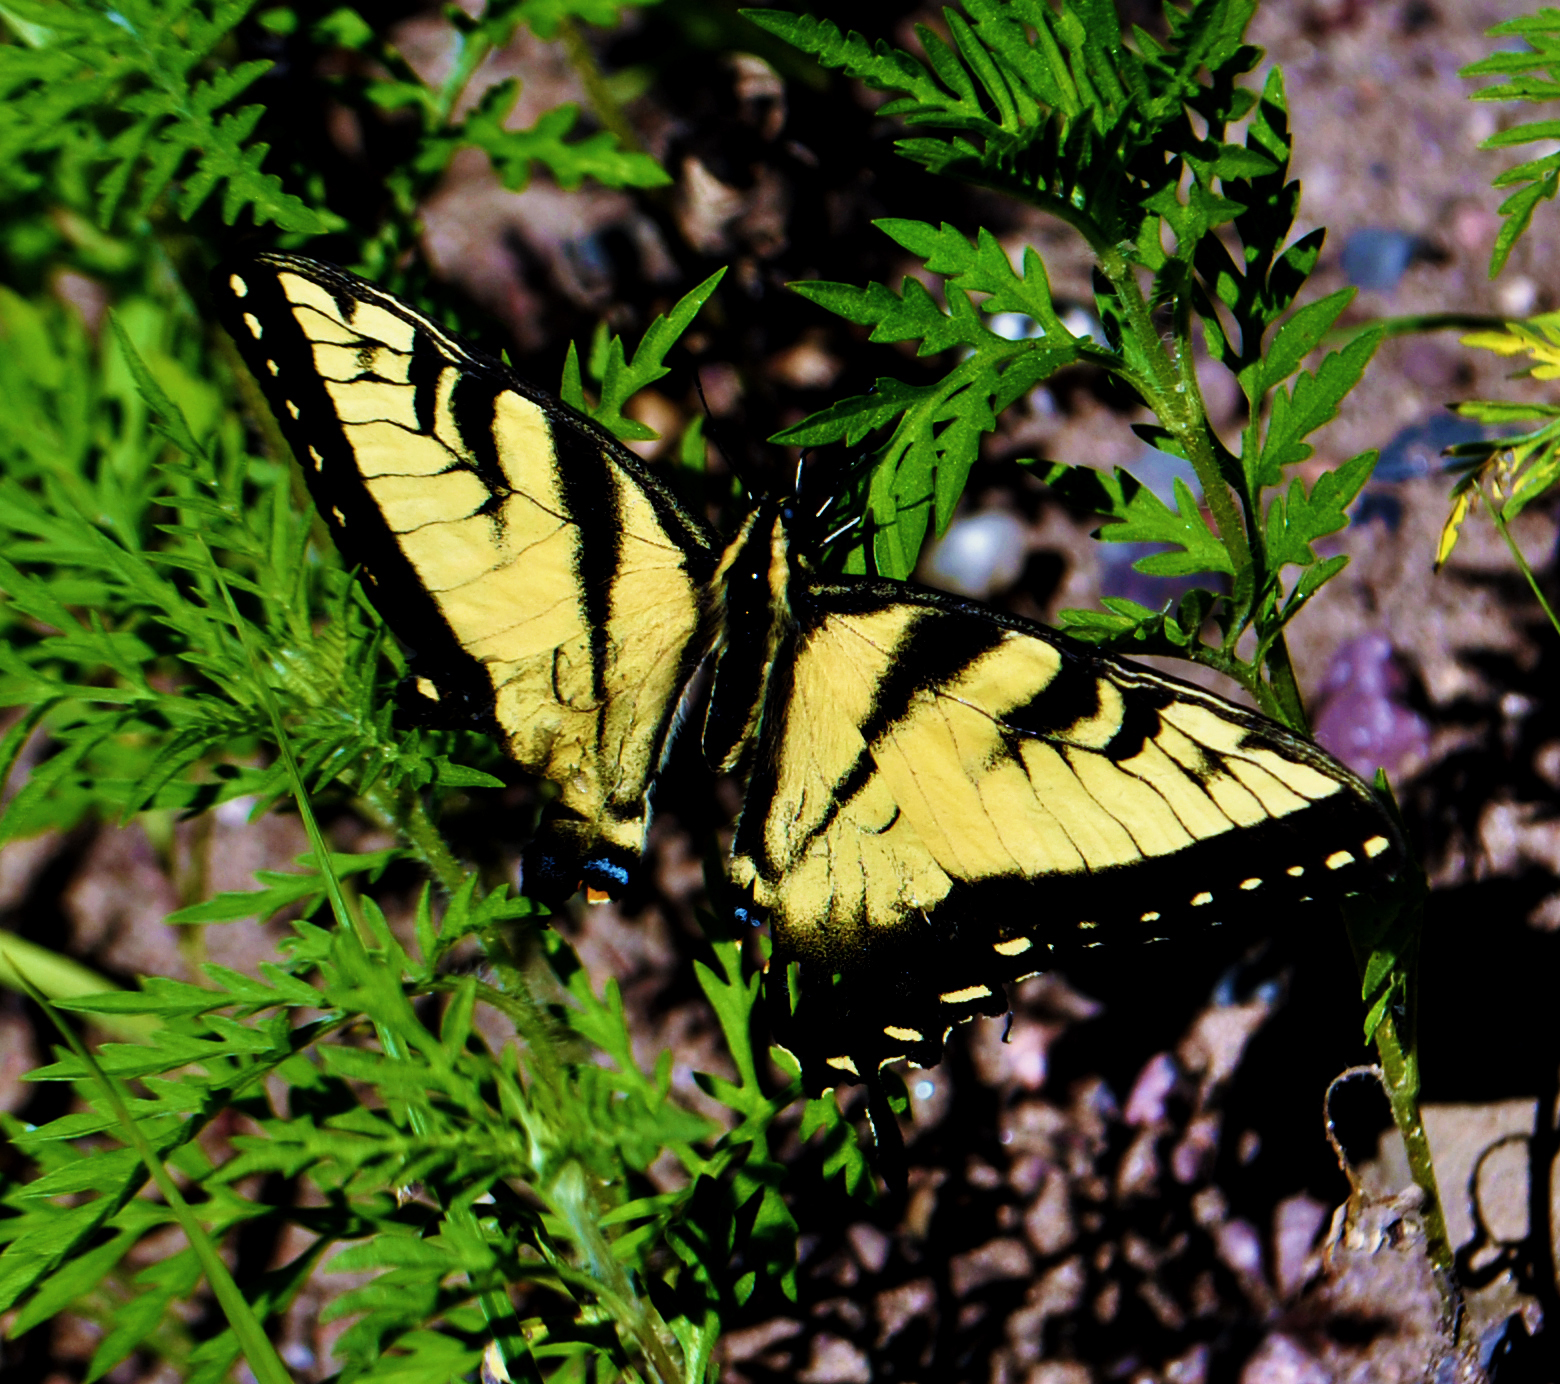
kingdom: Animalia
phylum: Arthropoda
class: Insecta
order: Lepidoptera
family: Papilionidae
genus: Papilio
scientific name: Papilio glaucus
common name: Tiger swallowtail
